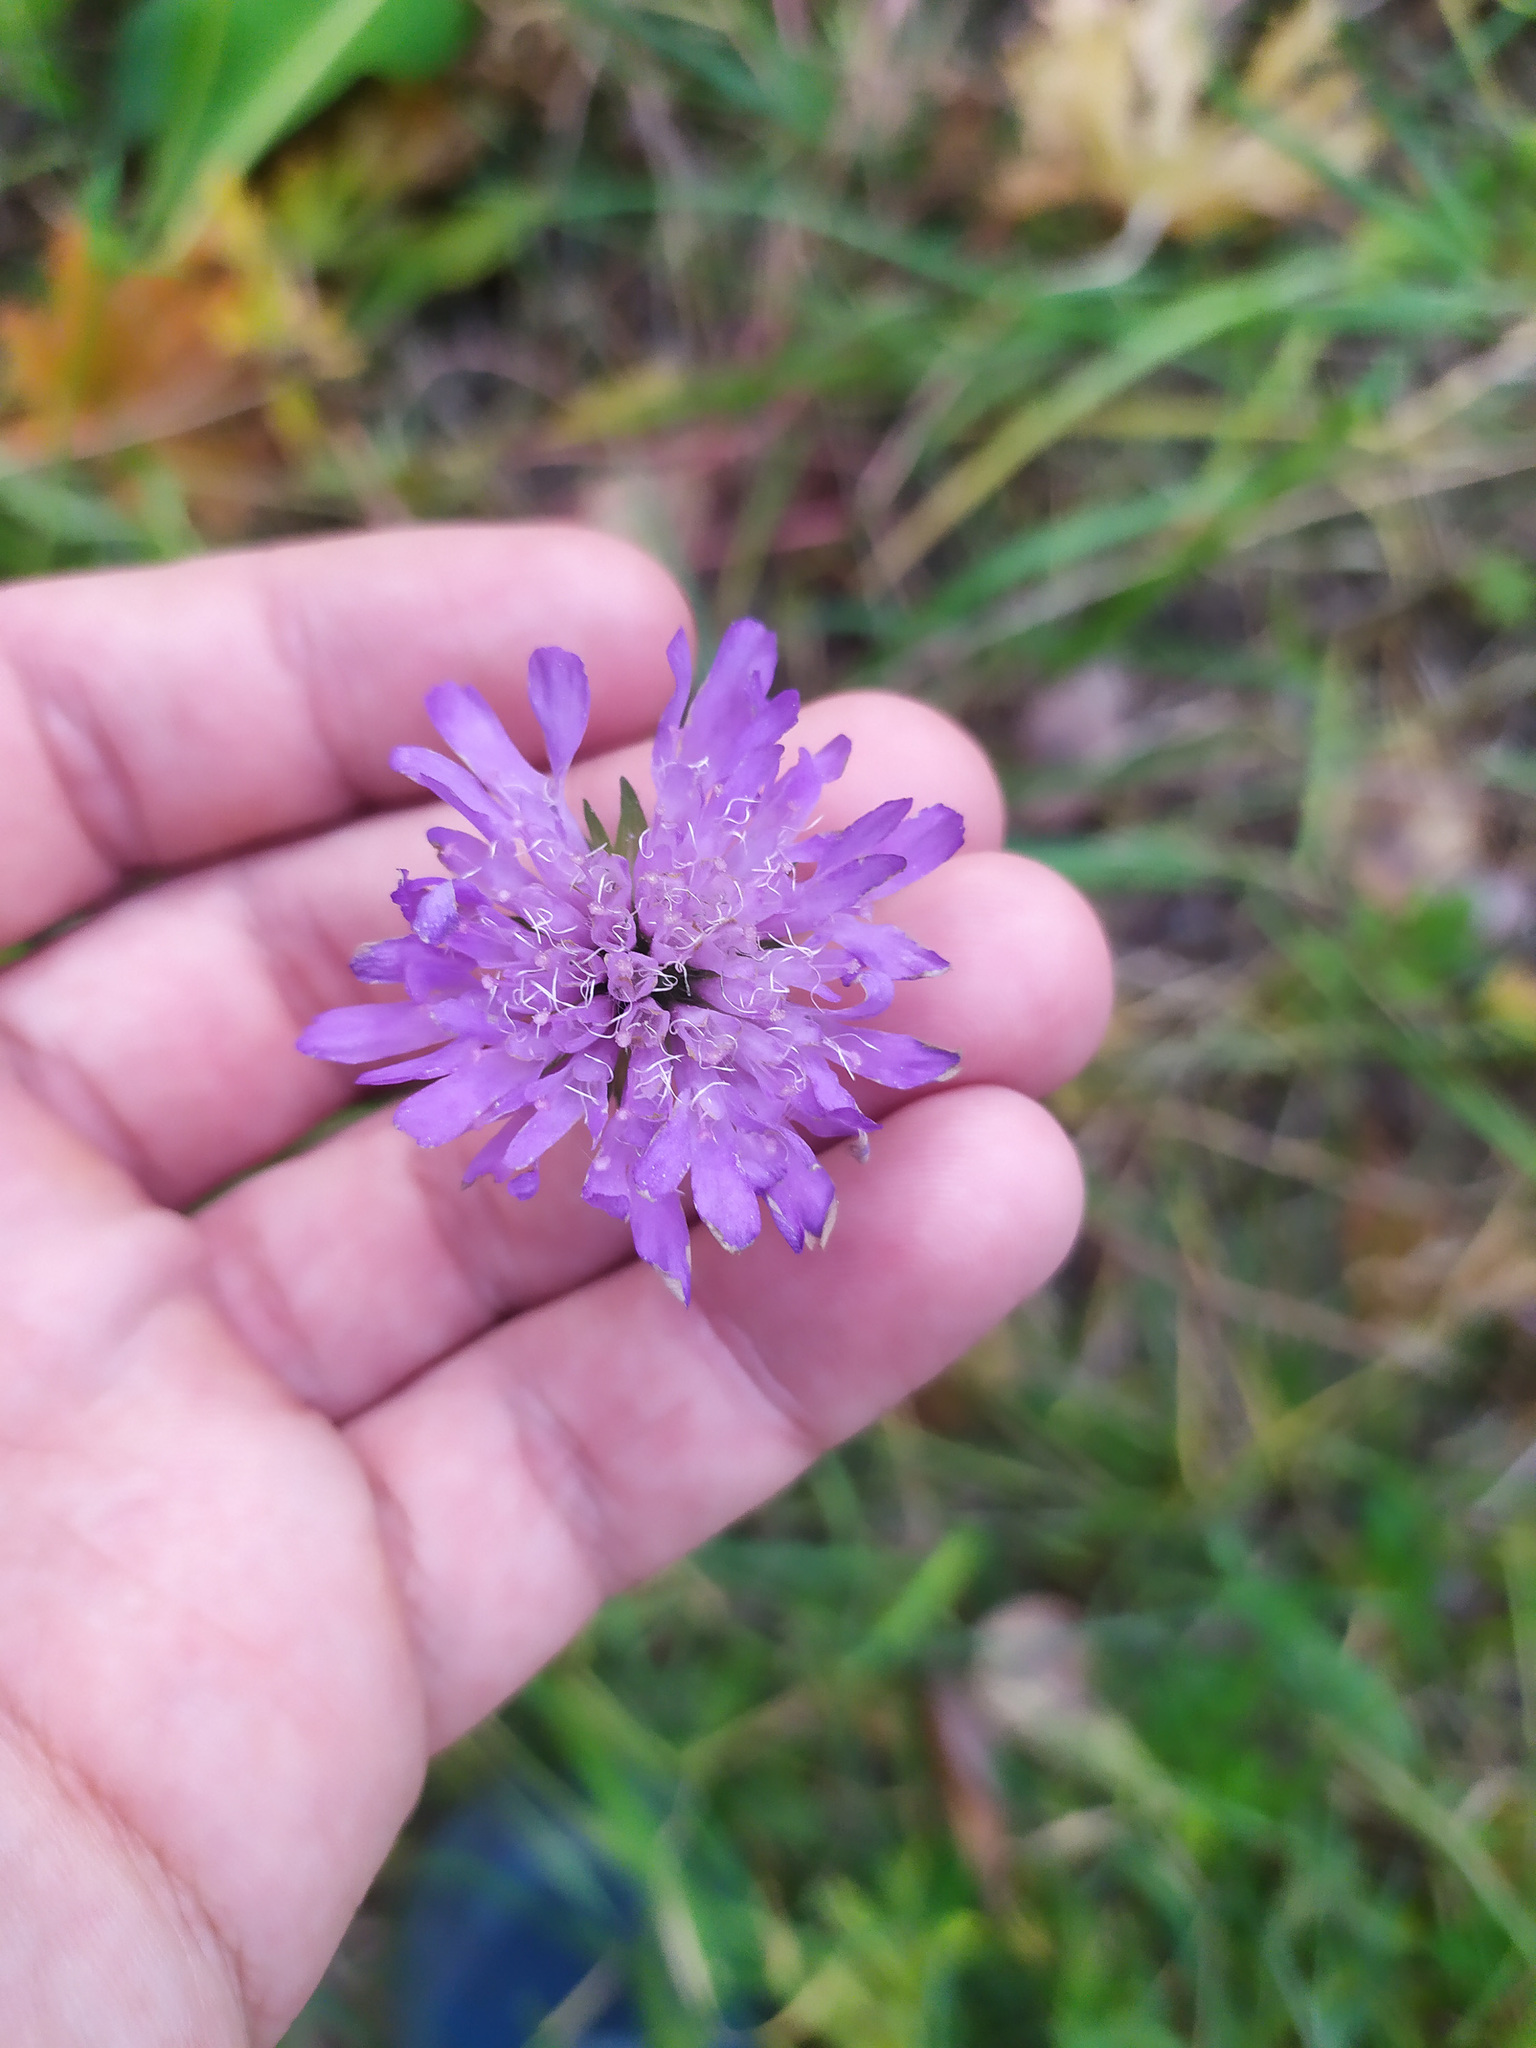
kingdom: Plantae
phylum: Tracheophyta
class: Magnoliopsida
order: Dipsacales
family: Caprifoliaceae
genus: Knautia
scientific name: Knautia arvensis
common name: Field scabiosa
